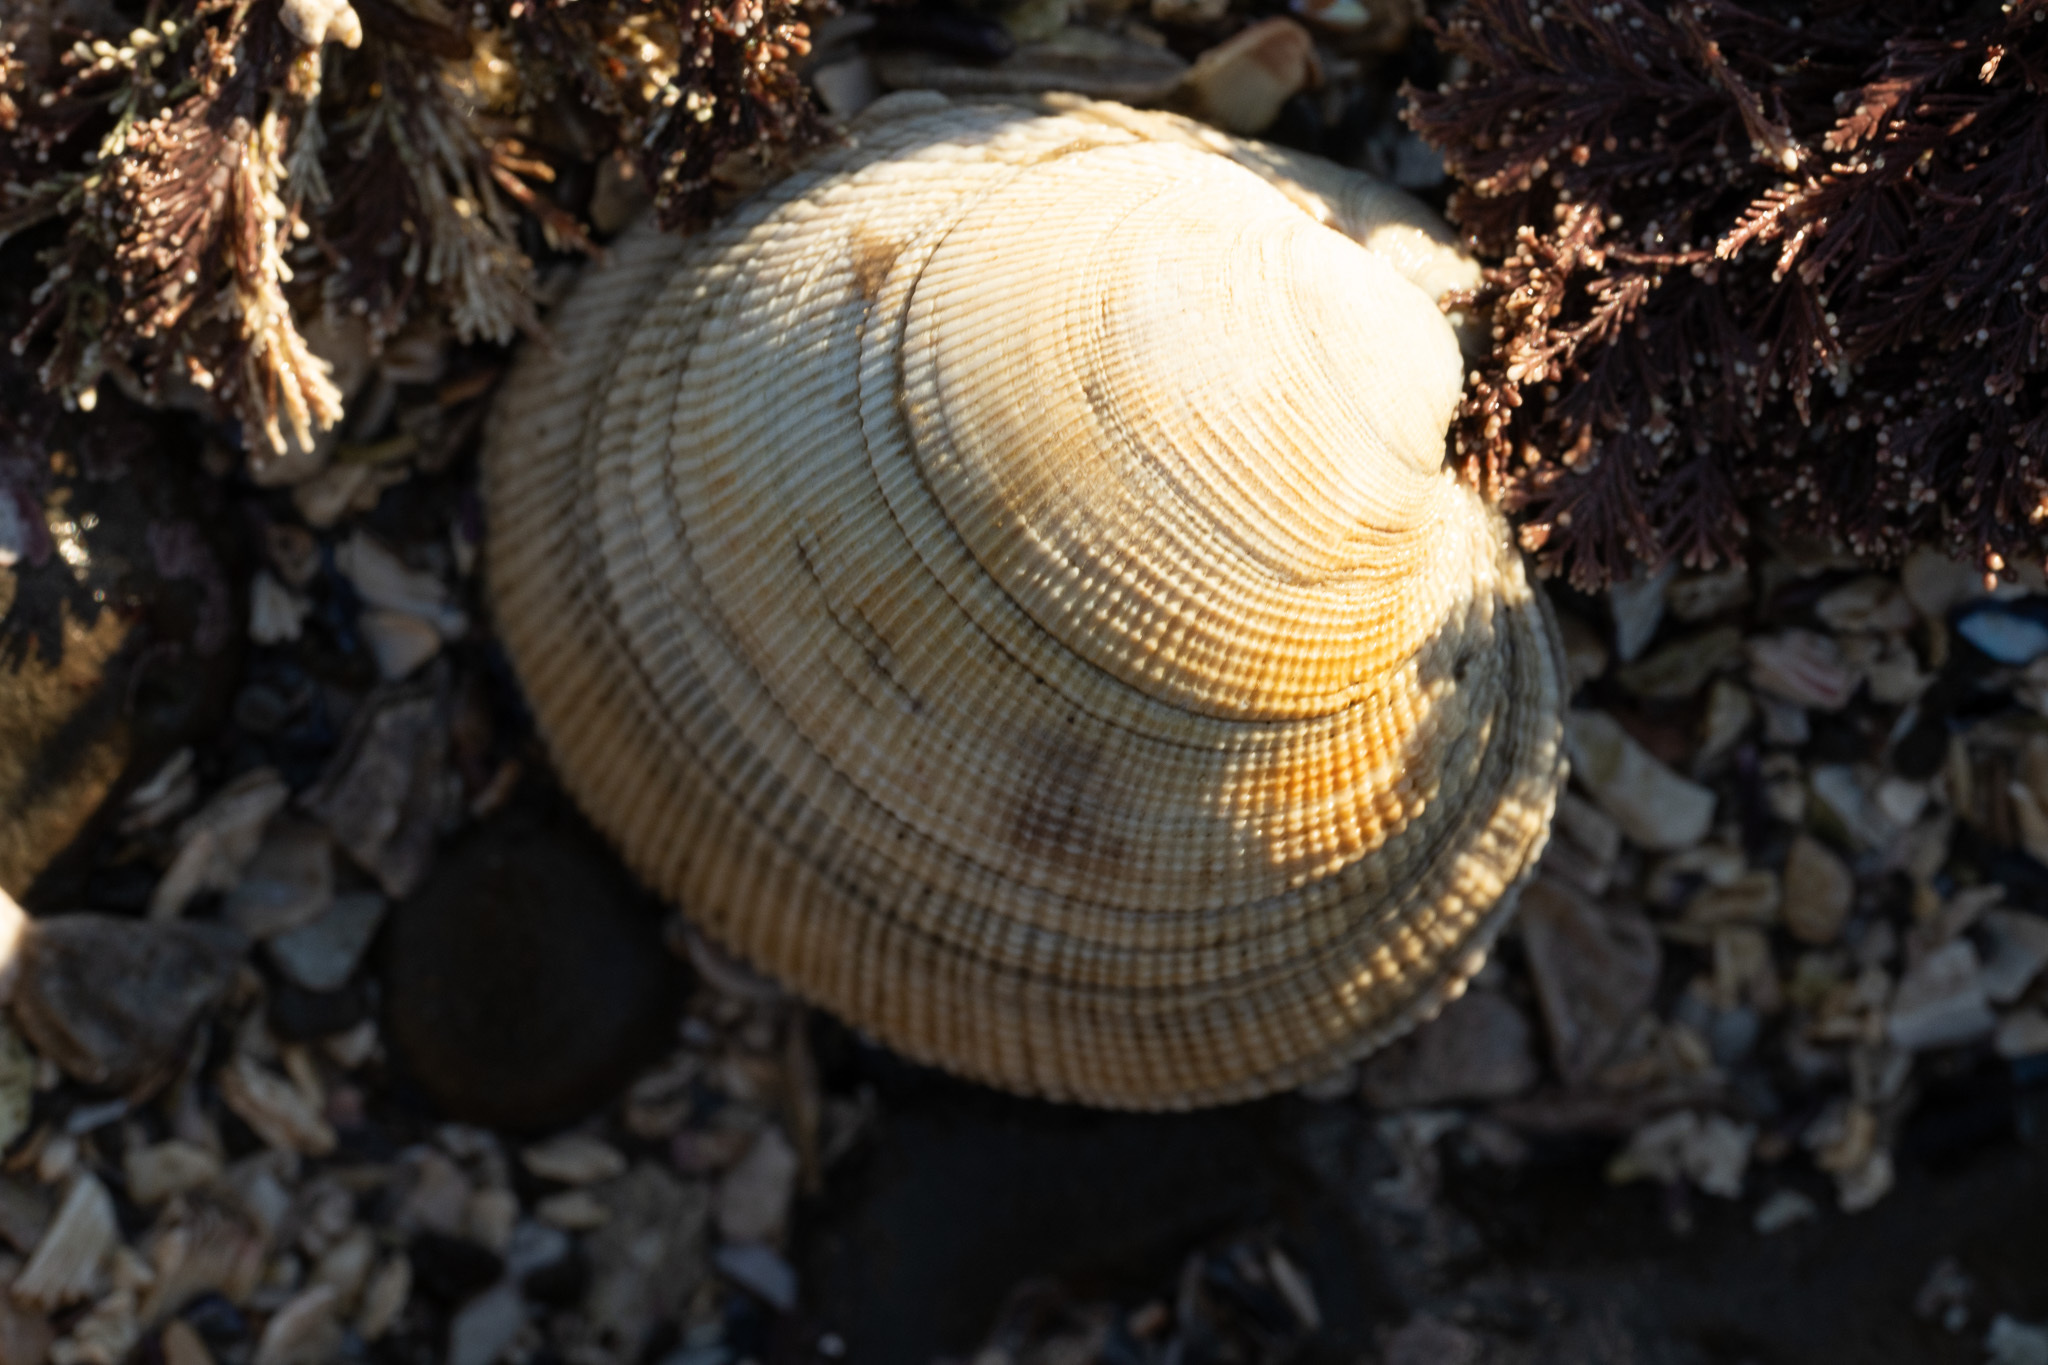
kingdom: Animalia
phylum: Mollusca
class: Bivalvia
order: Venerida
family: Veneridae
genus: Leukoma
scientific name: Leukoma staminea
